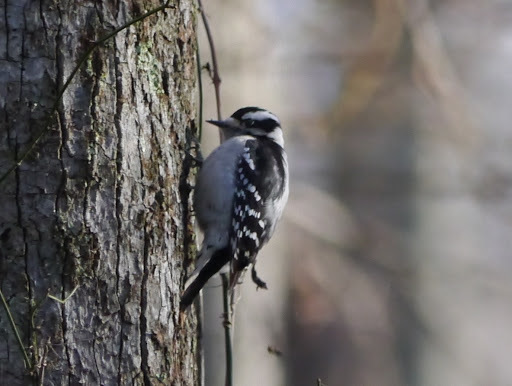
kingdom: Animalia
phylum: Chordata
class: Aves
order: Piciformes
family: Picidae
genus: Dryobates
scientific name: Dryobates pubescens
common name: Downy woodpecker
